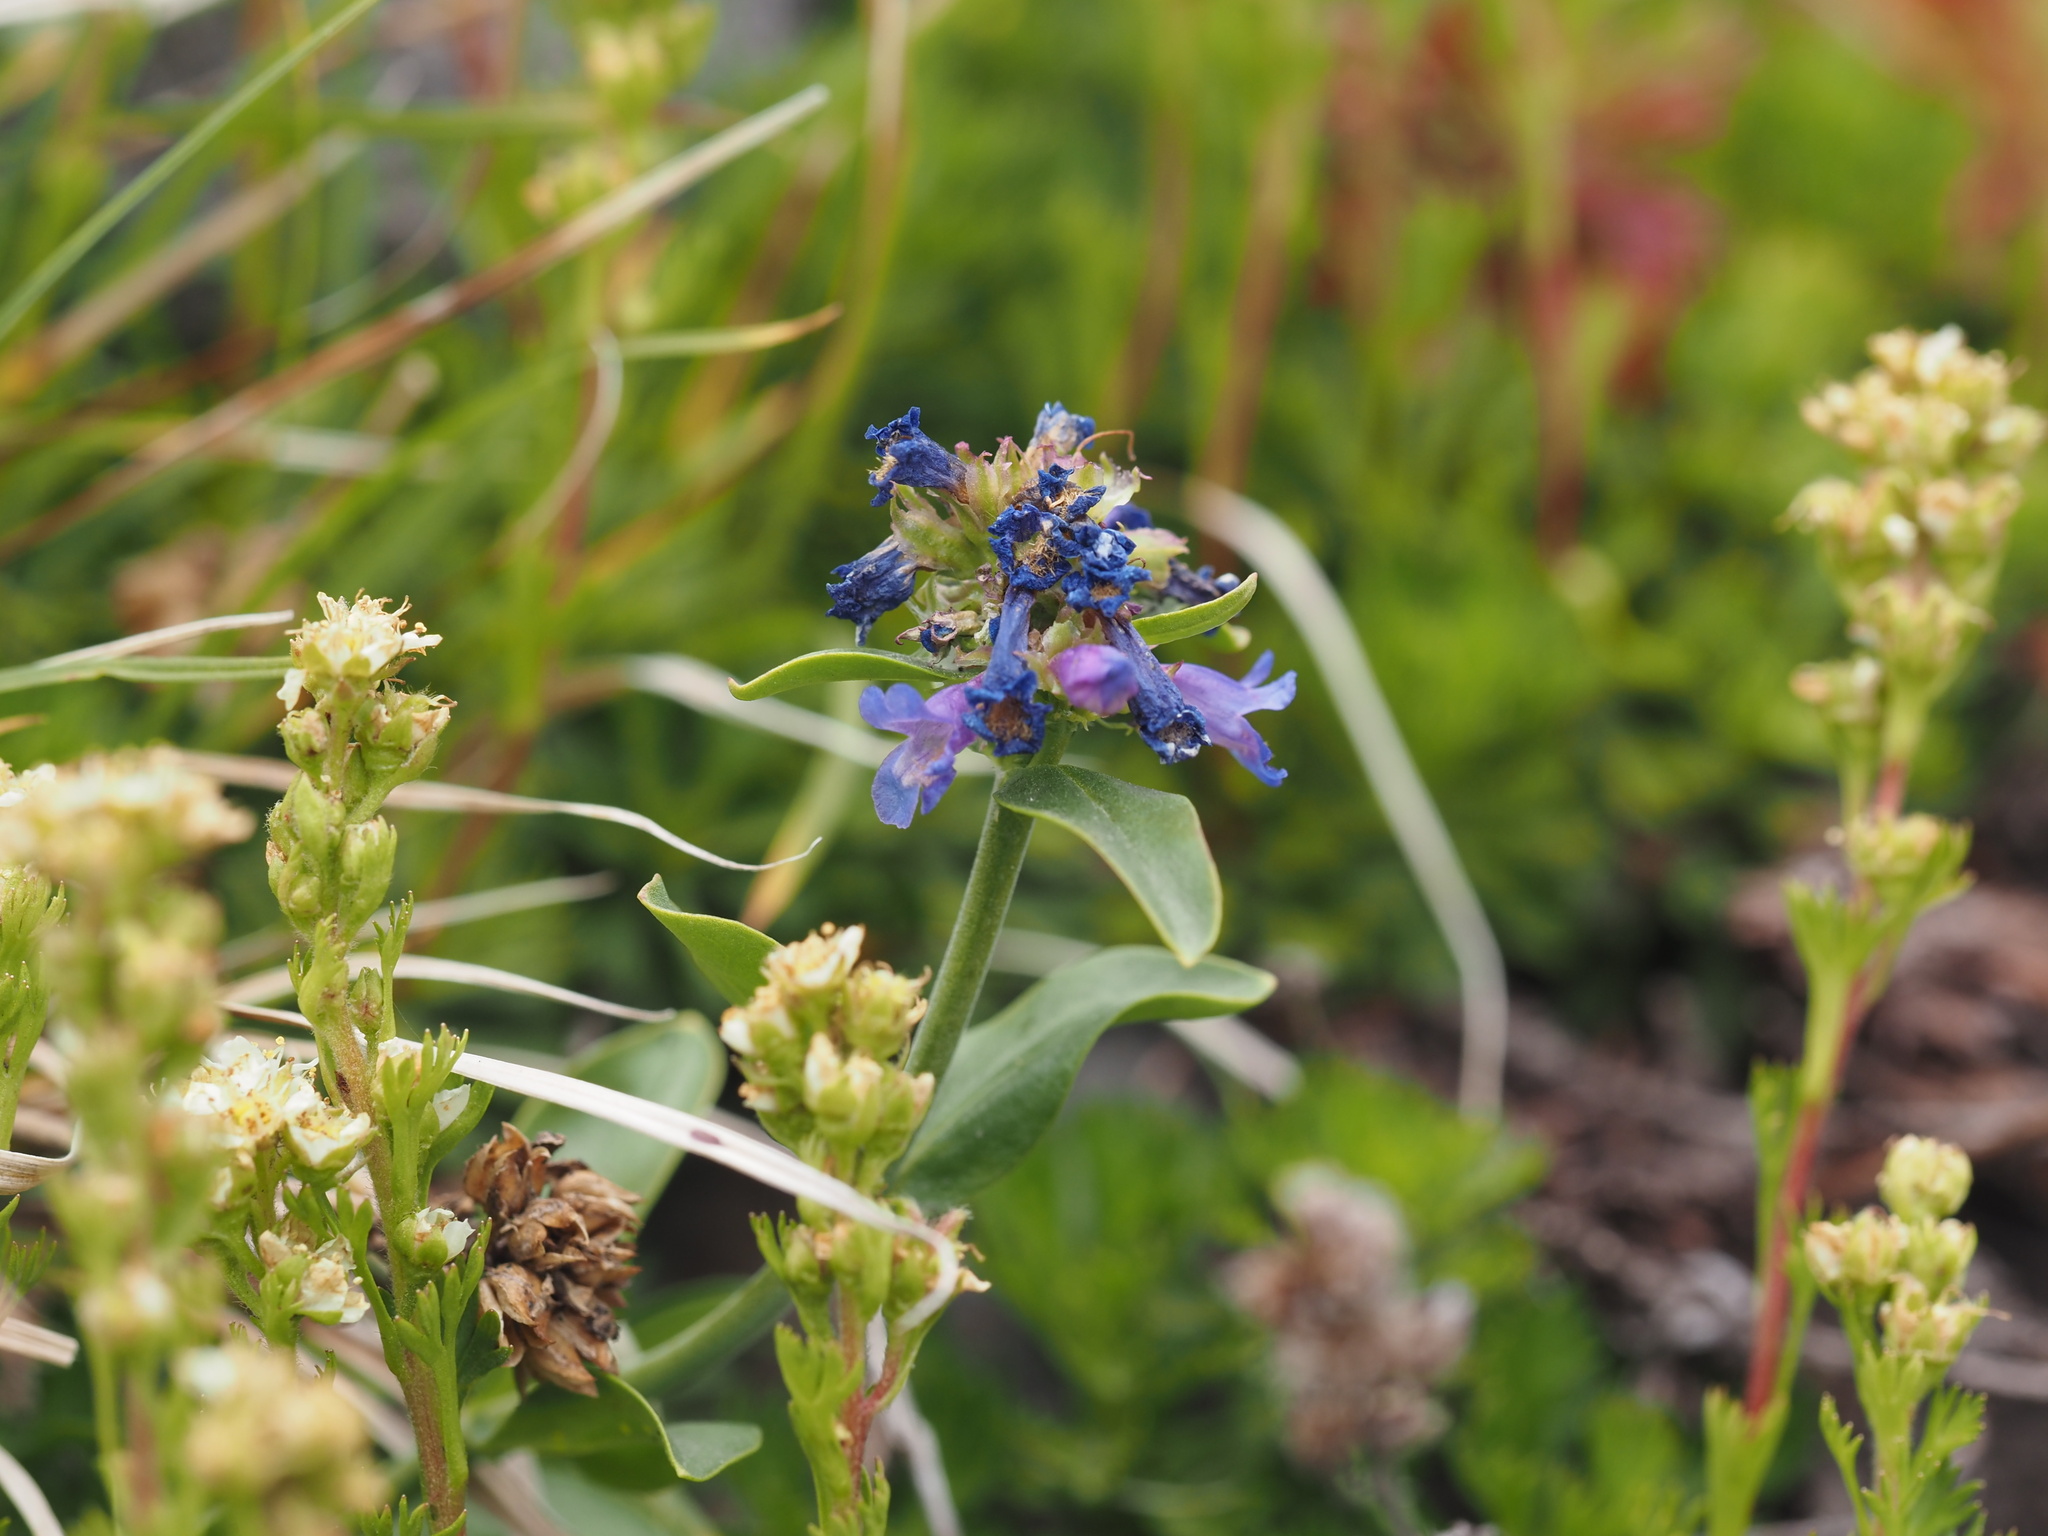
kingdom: Plantae
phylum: Tracheophyta
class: Magnoliopsida
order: Lamiales
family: Plantaginaceae
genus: Penstemon
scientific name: Penstemon procerus
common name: Small-flower penstemon
